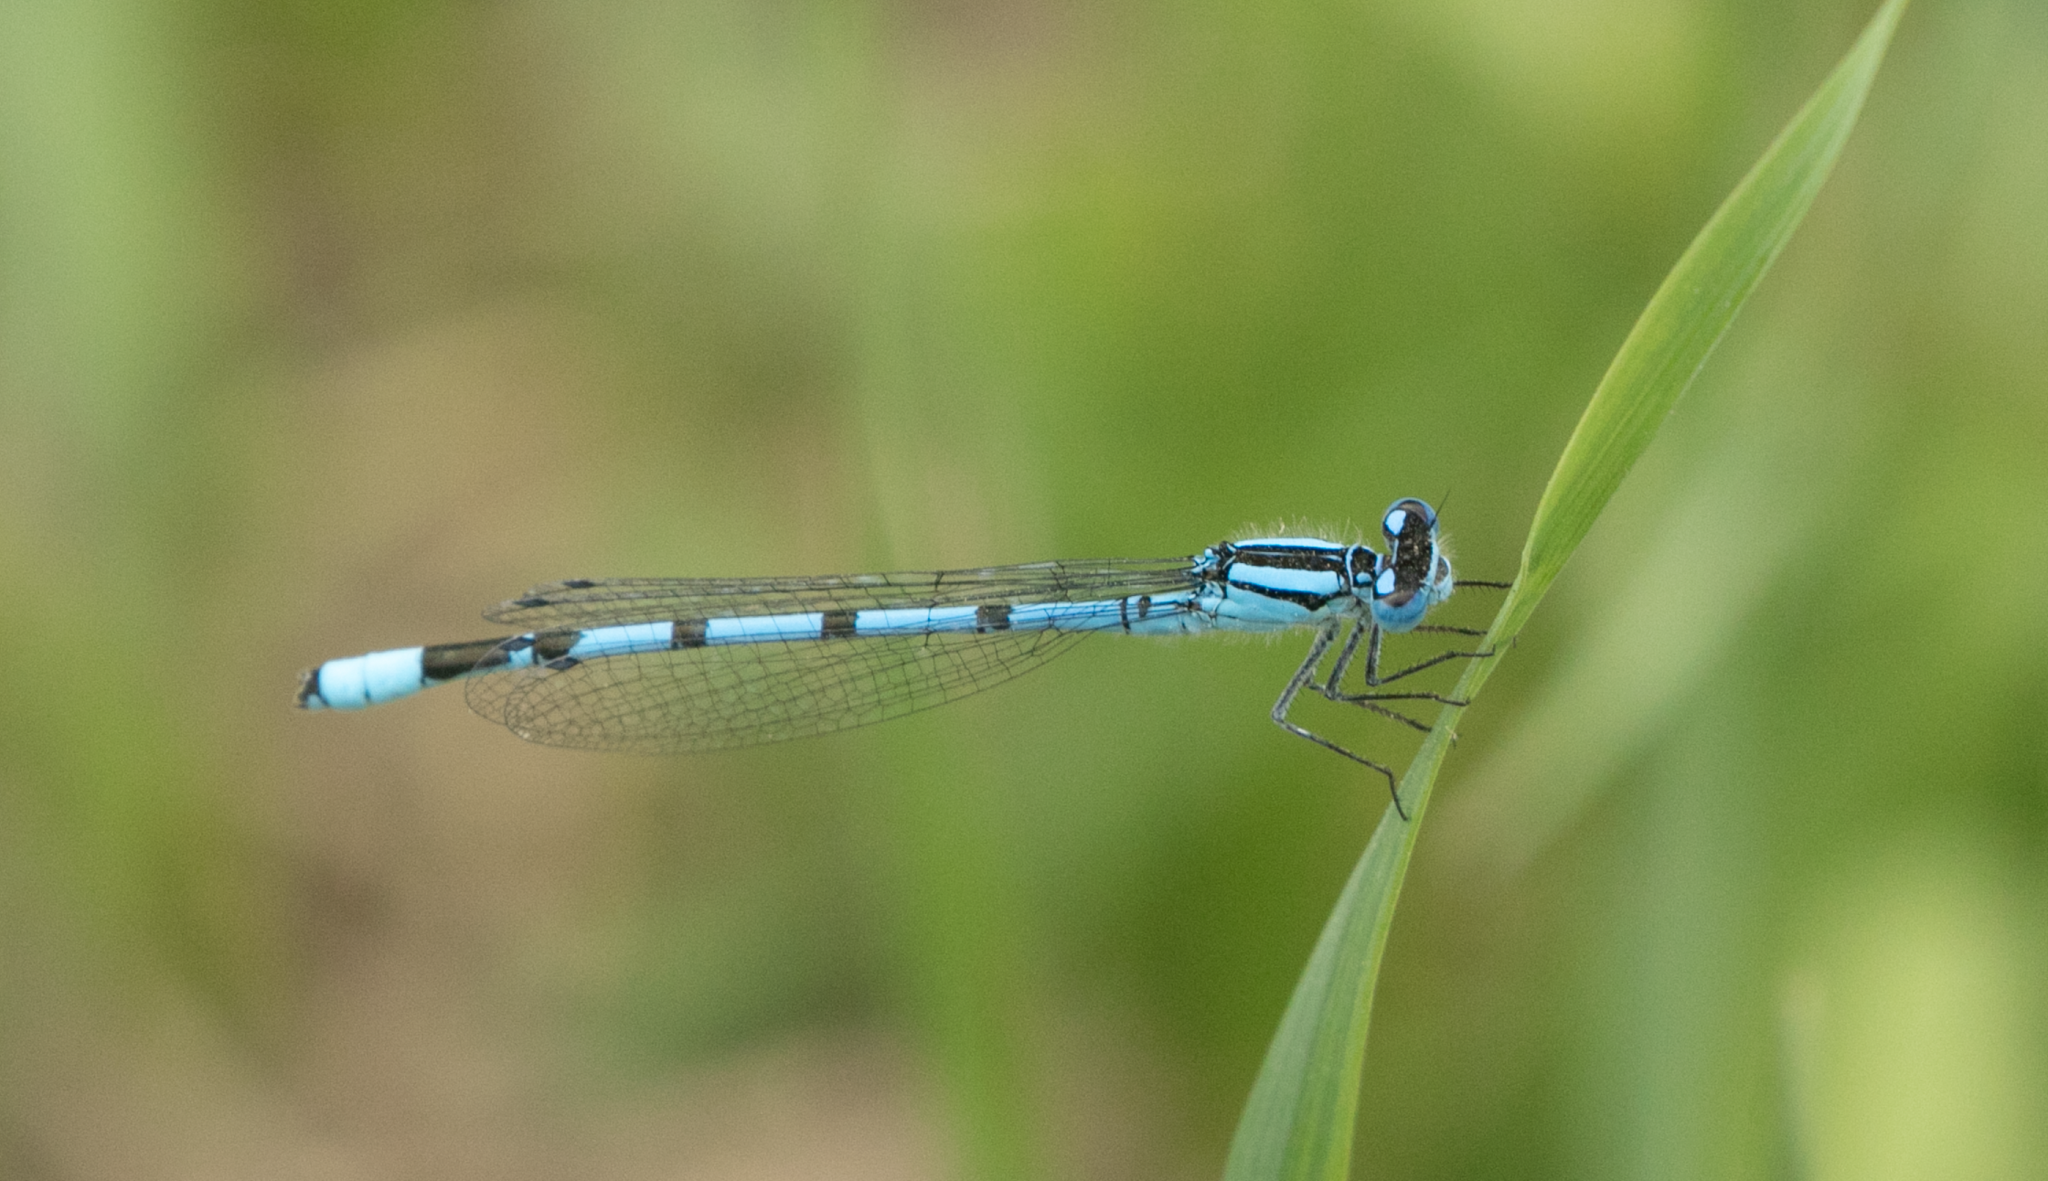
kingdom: Animalia
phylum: Arthropoda
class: Insecta
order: Odonata
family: Coenagrionidae
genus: Enallagma
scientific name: Enallagma cyathigerum
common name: Common blue damselfly
